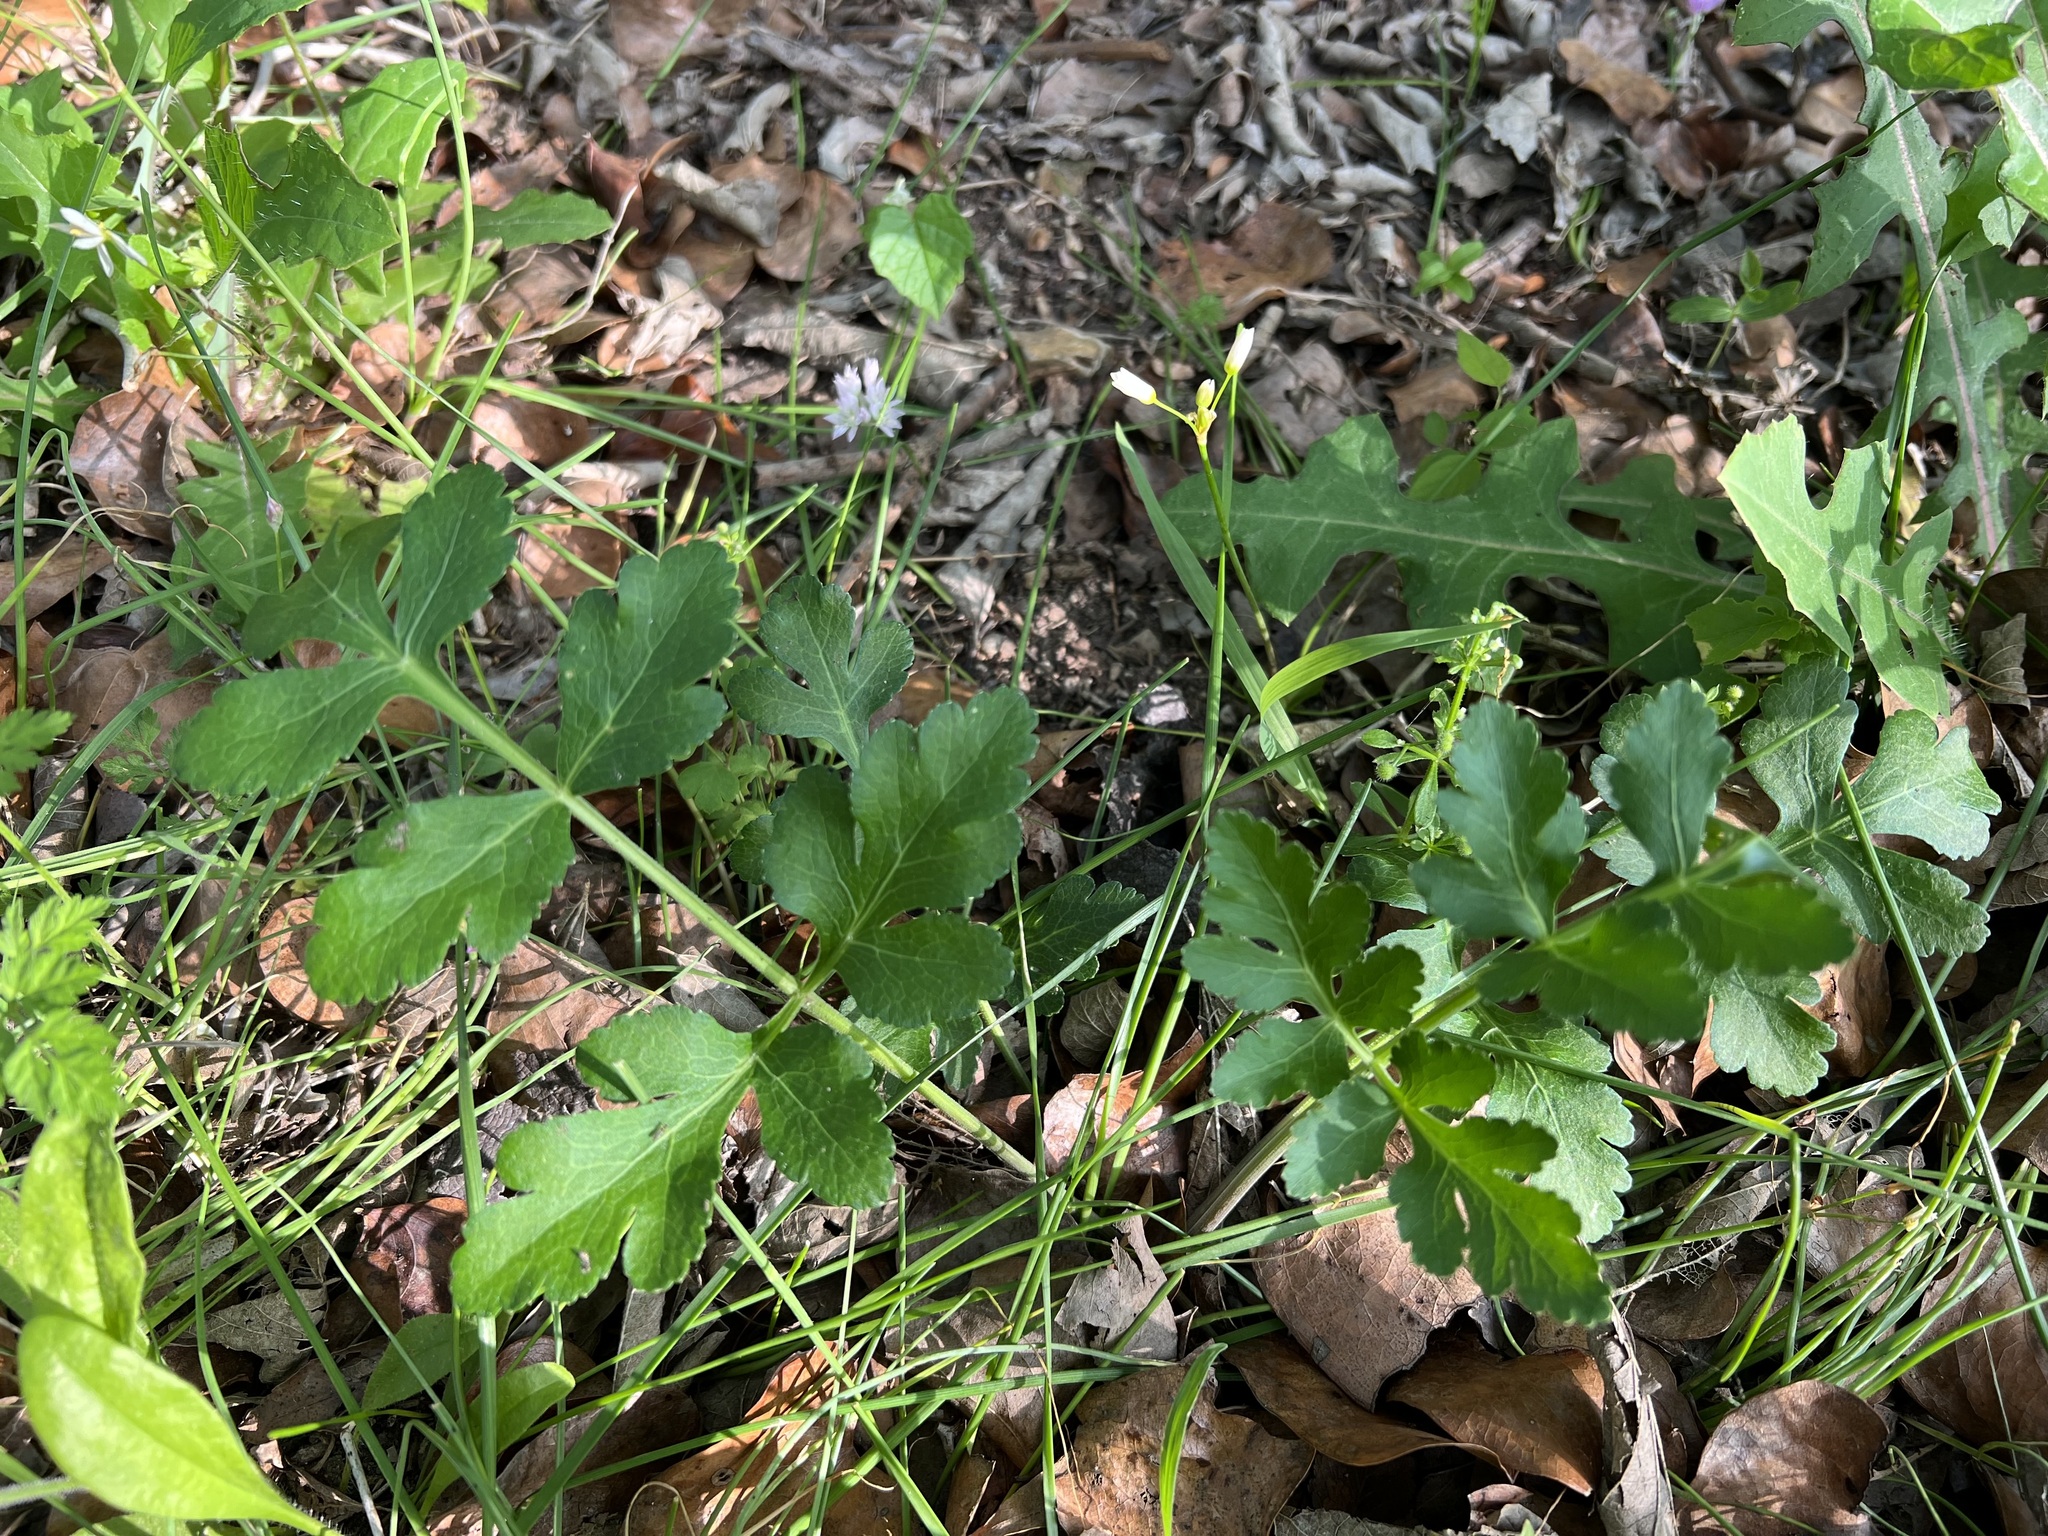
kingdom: Plantae
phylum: Tracheophyta
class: Magnoliopsida
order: Apiales
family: Apiaceae
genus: Polytaenia
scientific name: Polytaenia texana
